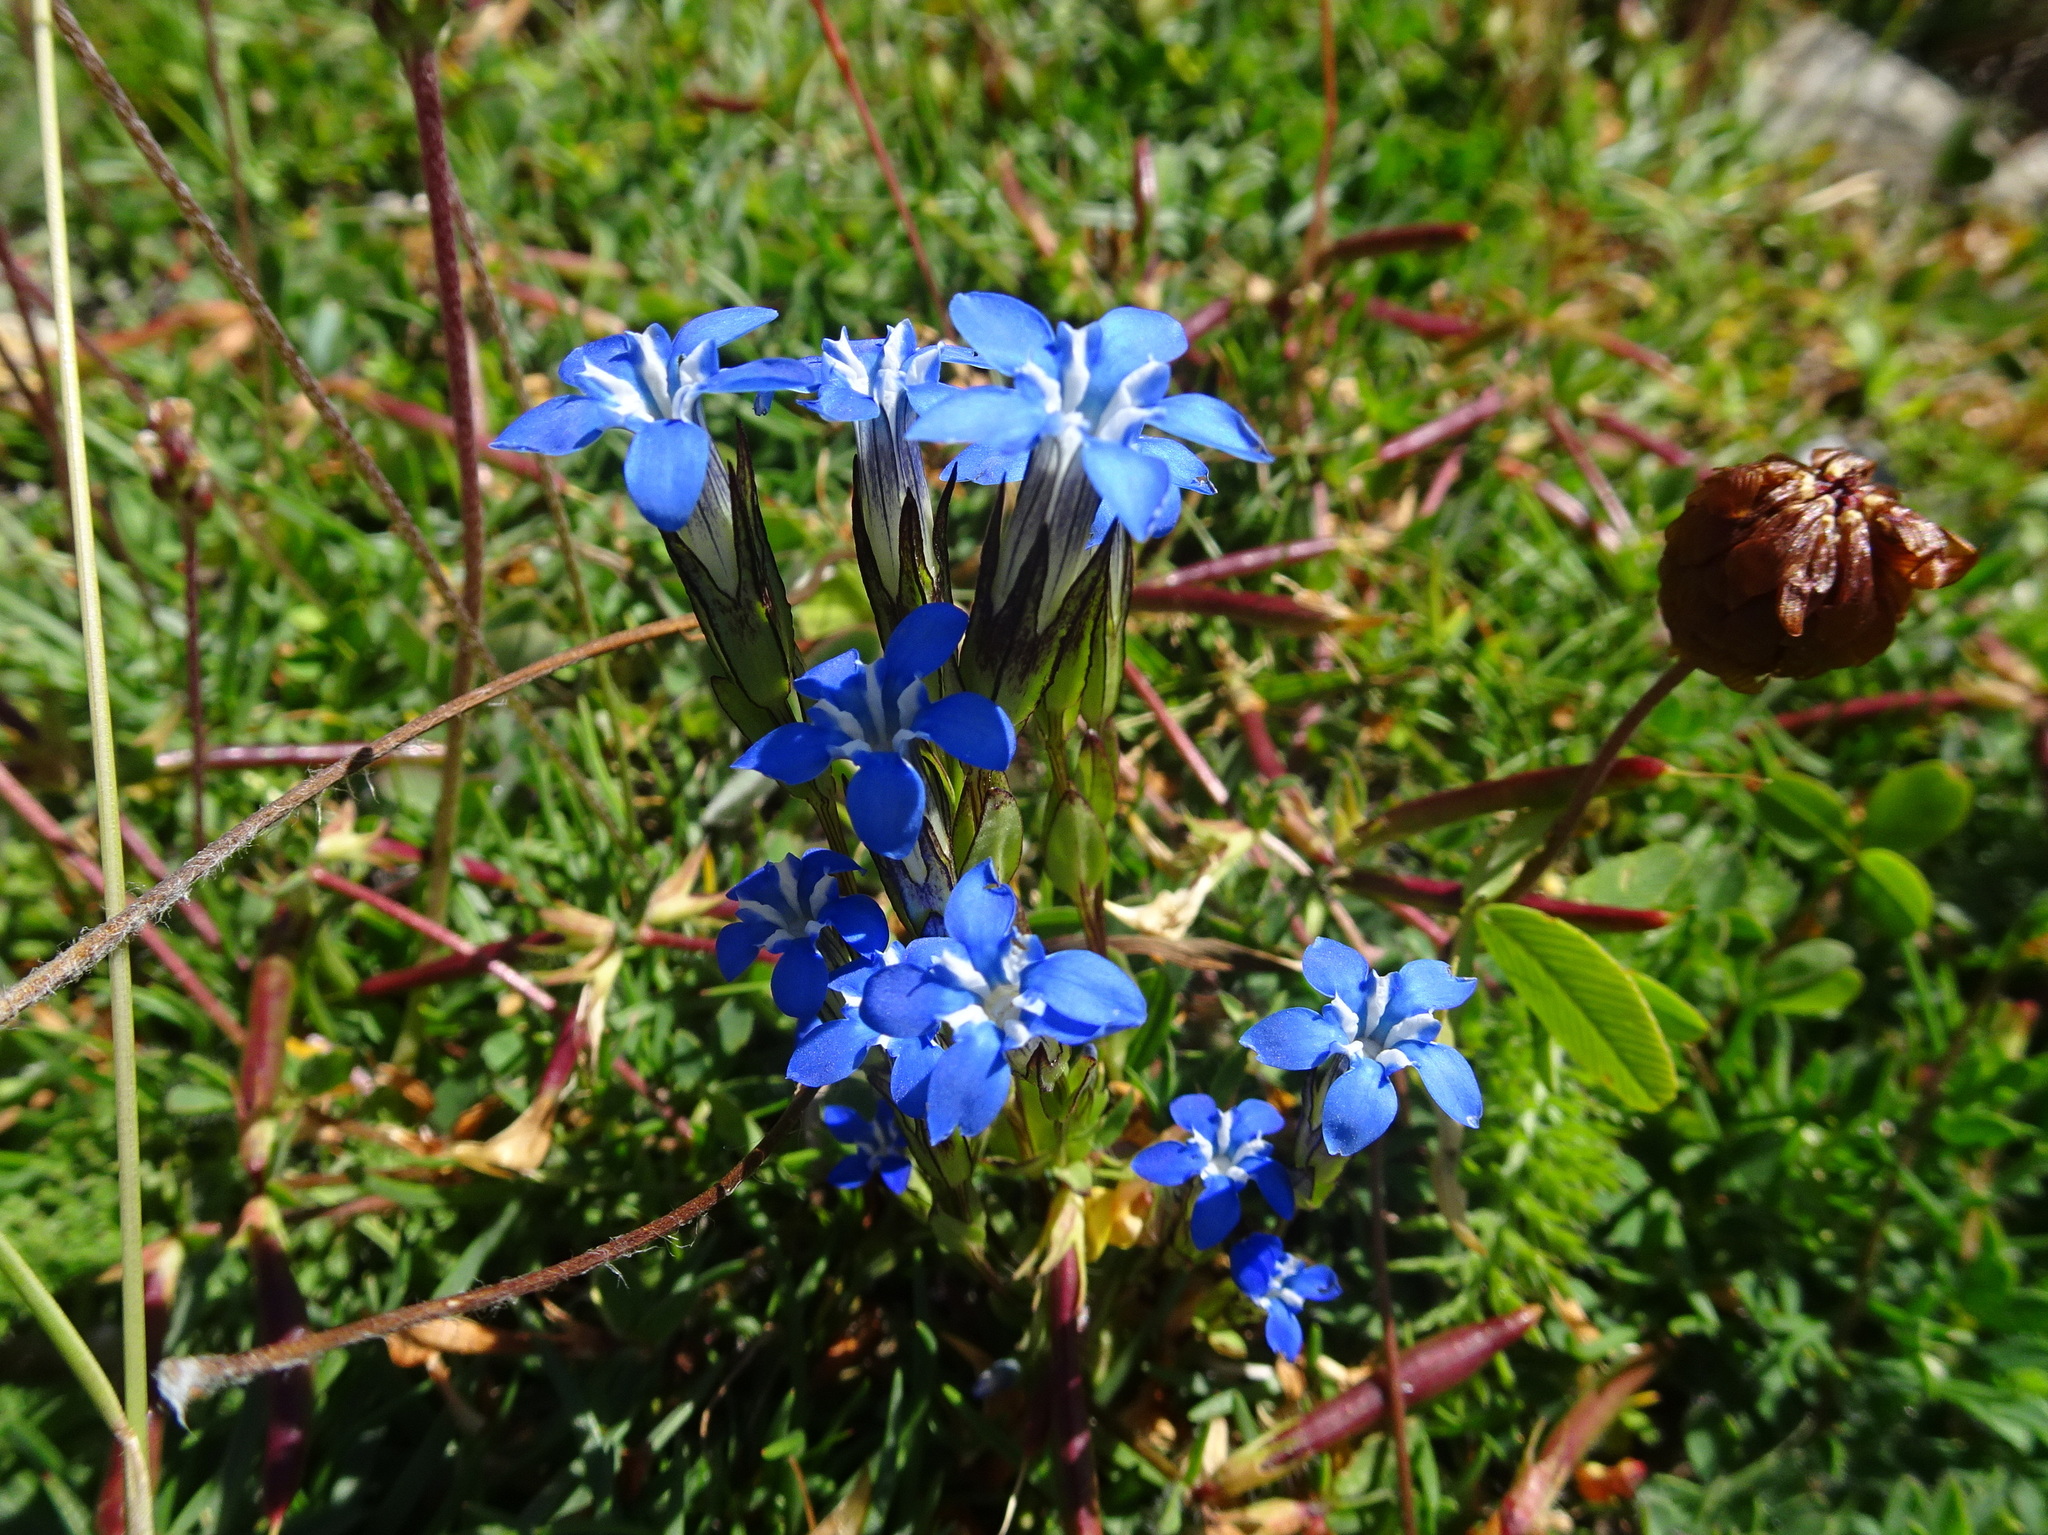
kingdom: Plantae
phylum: Tracheophyta
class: Magnoliopsida
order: Gentianales
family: Gentianaceae
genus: Gentiana
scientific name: Gentiana nivalis
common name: Alpine gentian
